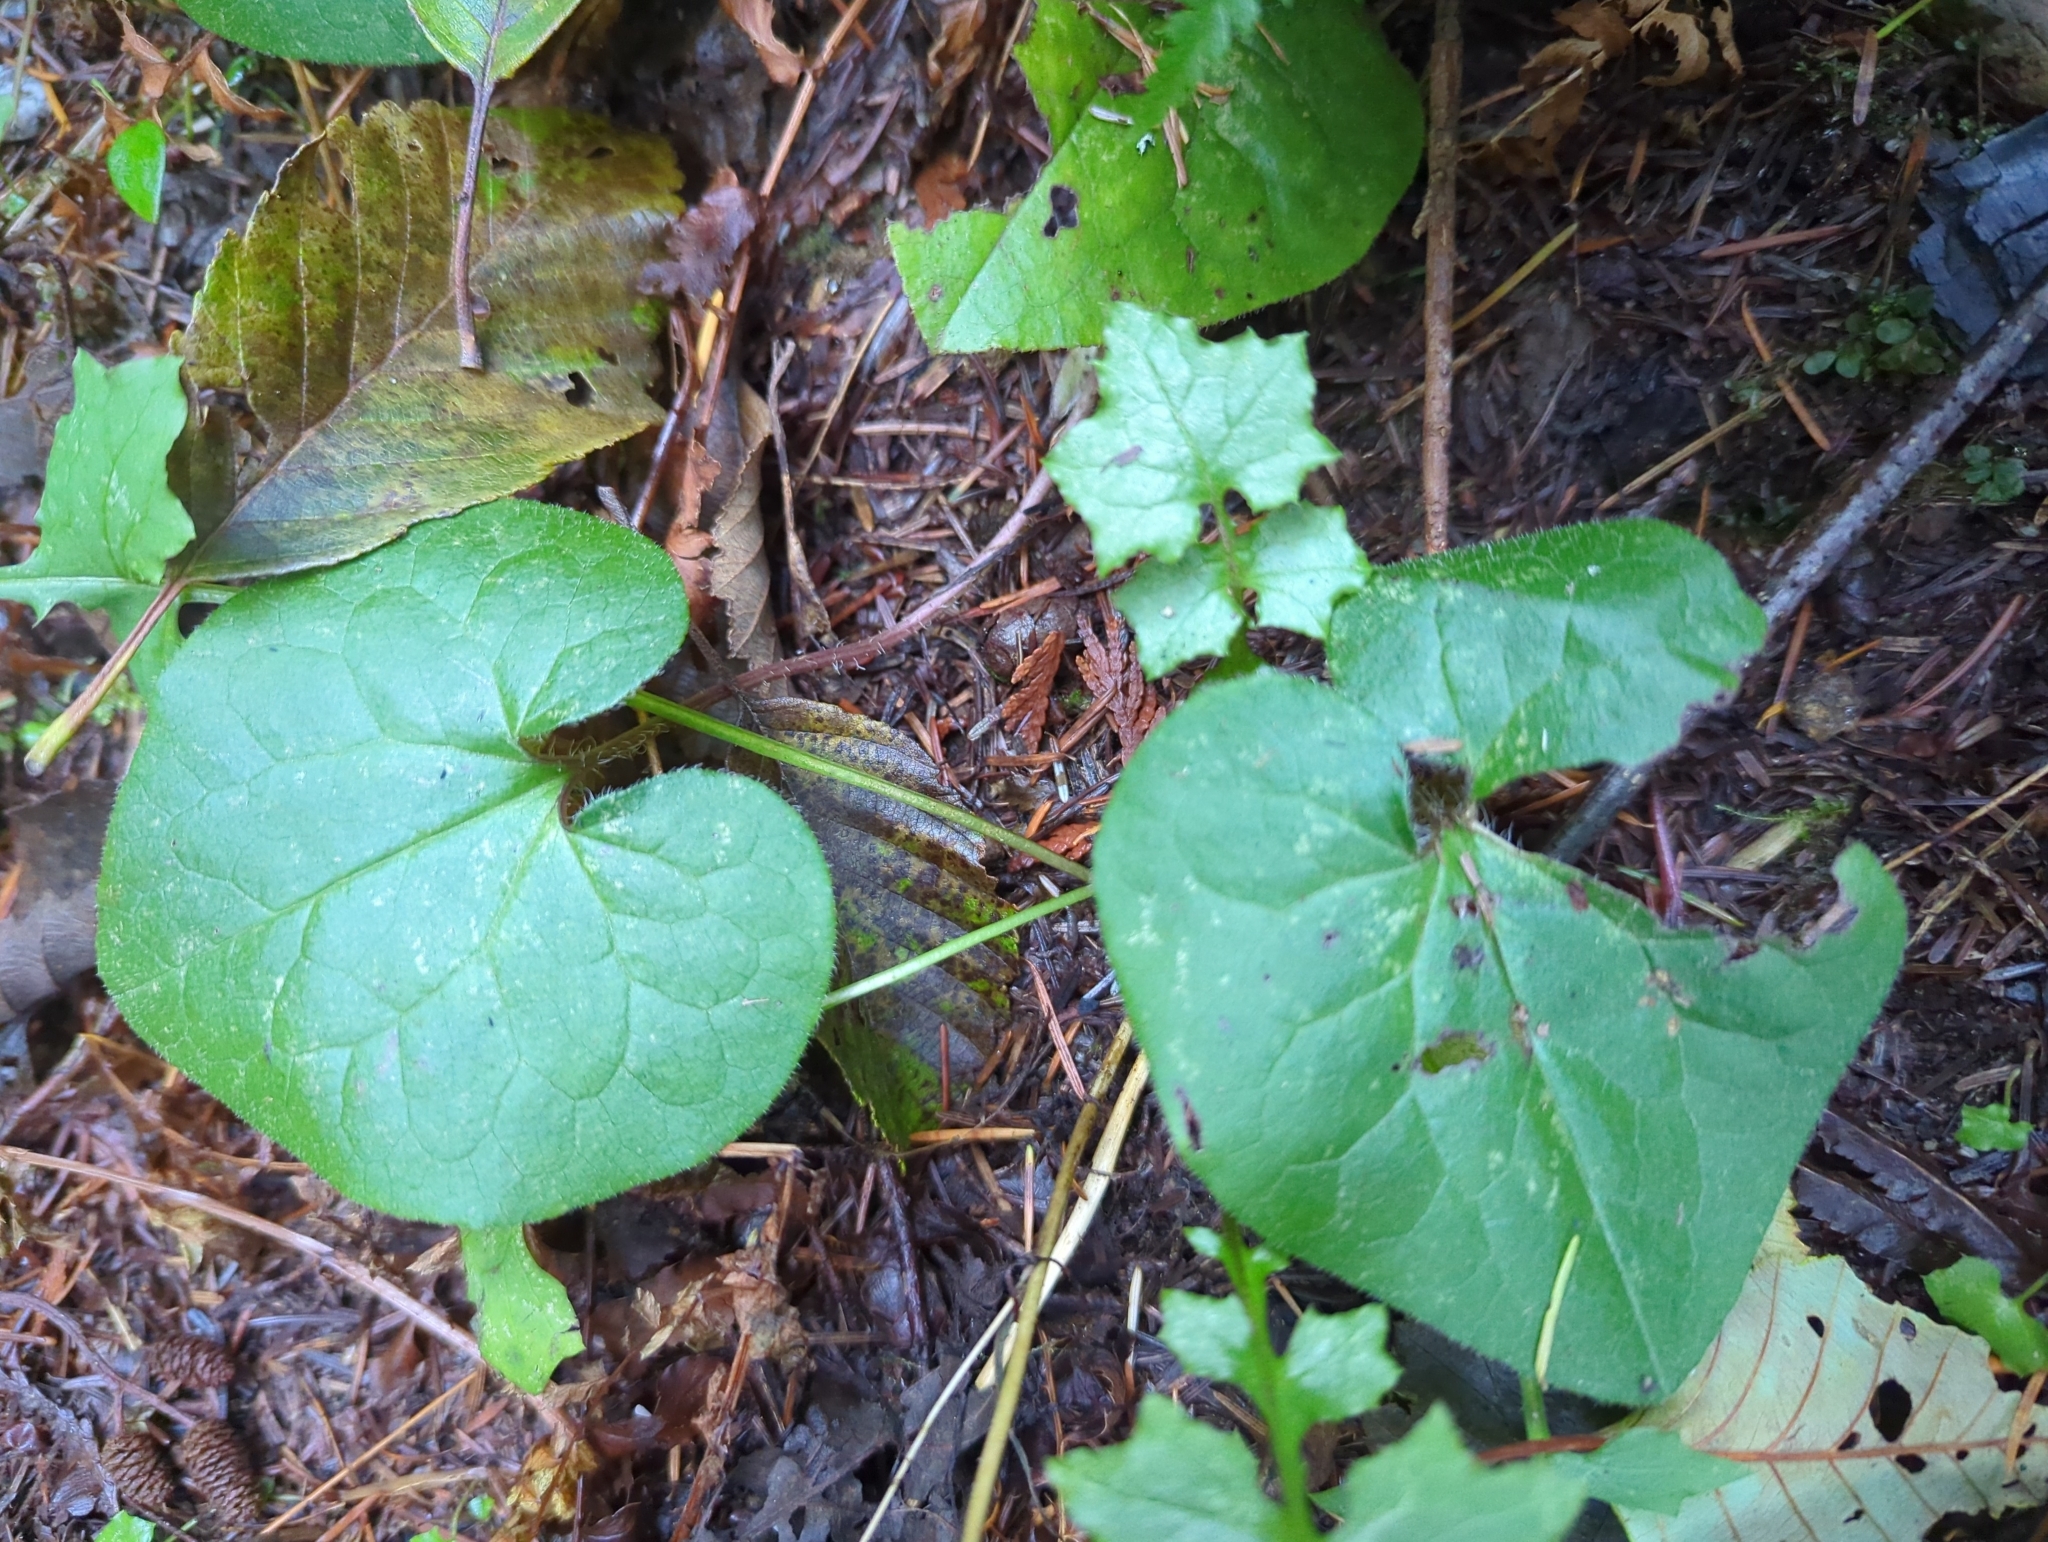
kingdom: Plantae
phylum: Tracheophyta
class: Magnoliopsida
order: Piperales
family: Aristolochiaceae
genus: Asarum
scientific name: Asarum caudatum
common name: Wild ginger
